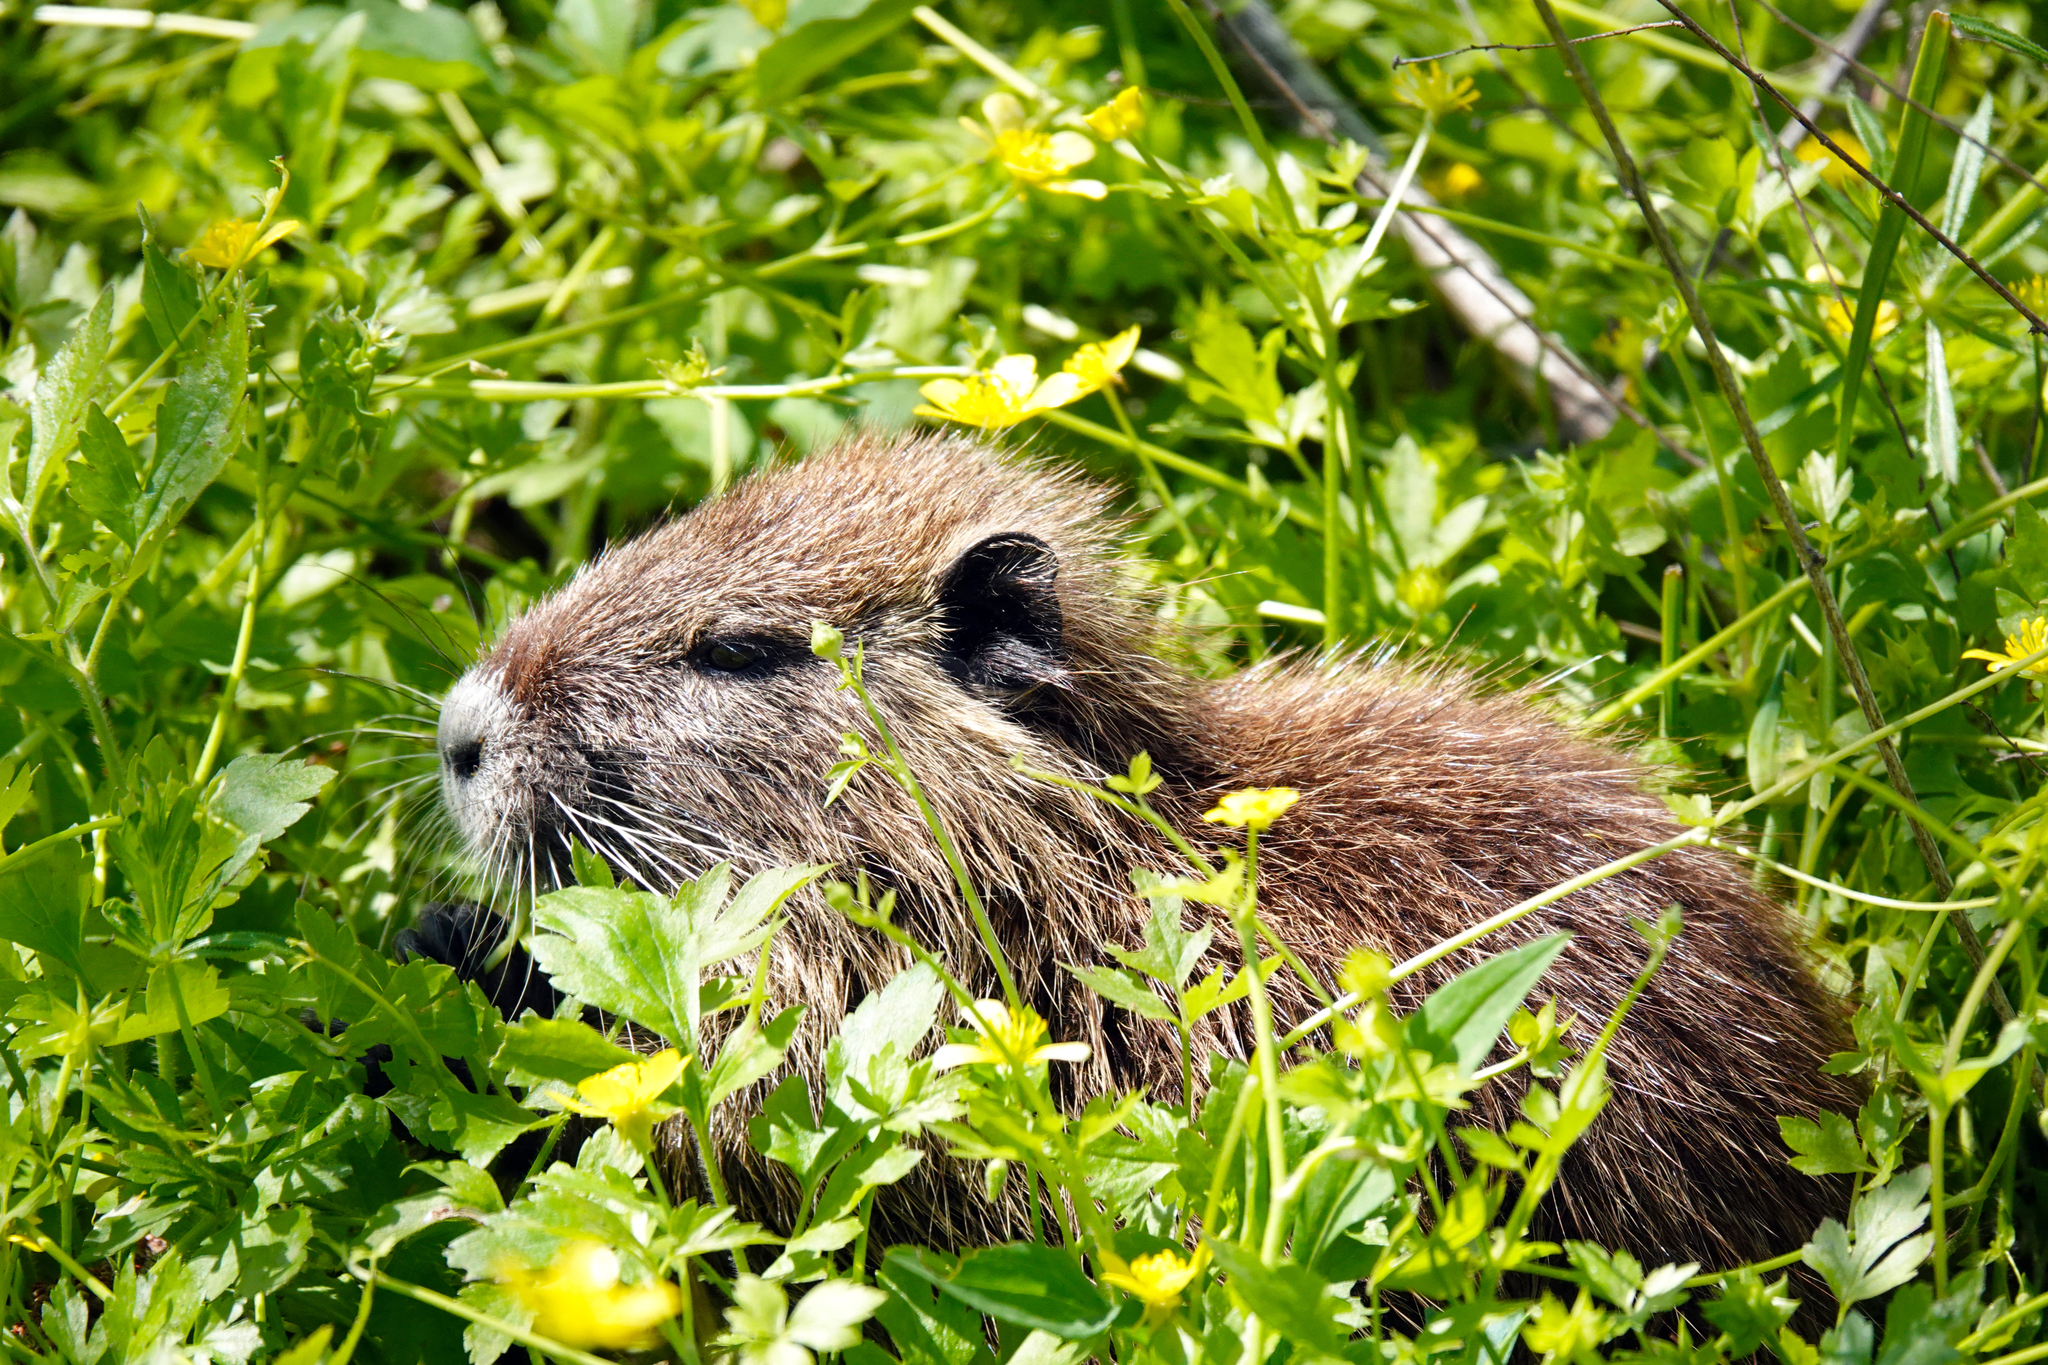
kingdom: Animalia
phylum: Chordata
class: Mammalia
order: Rodentia
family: Myocastoridae
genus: Myocastor
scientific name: Myocastor coypus
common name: Coypu
